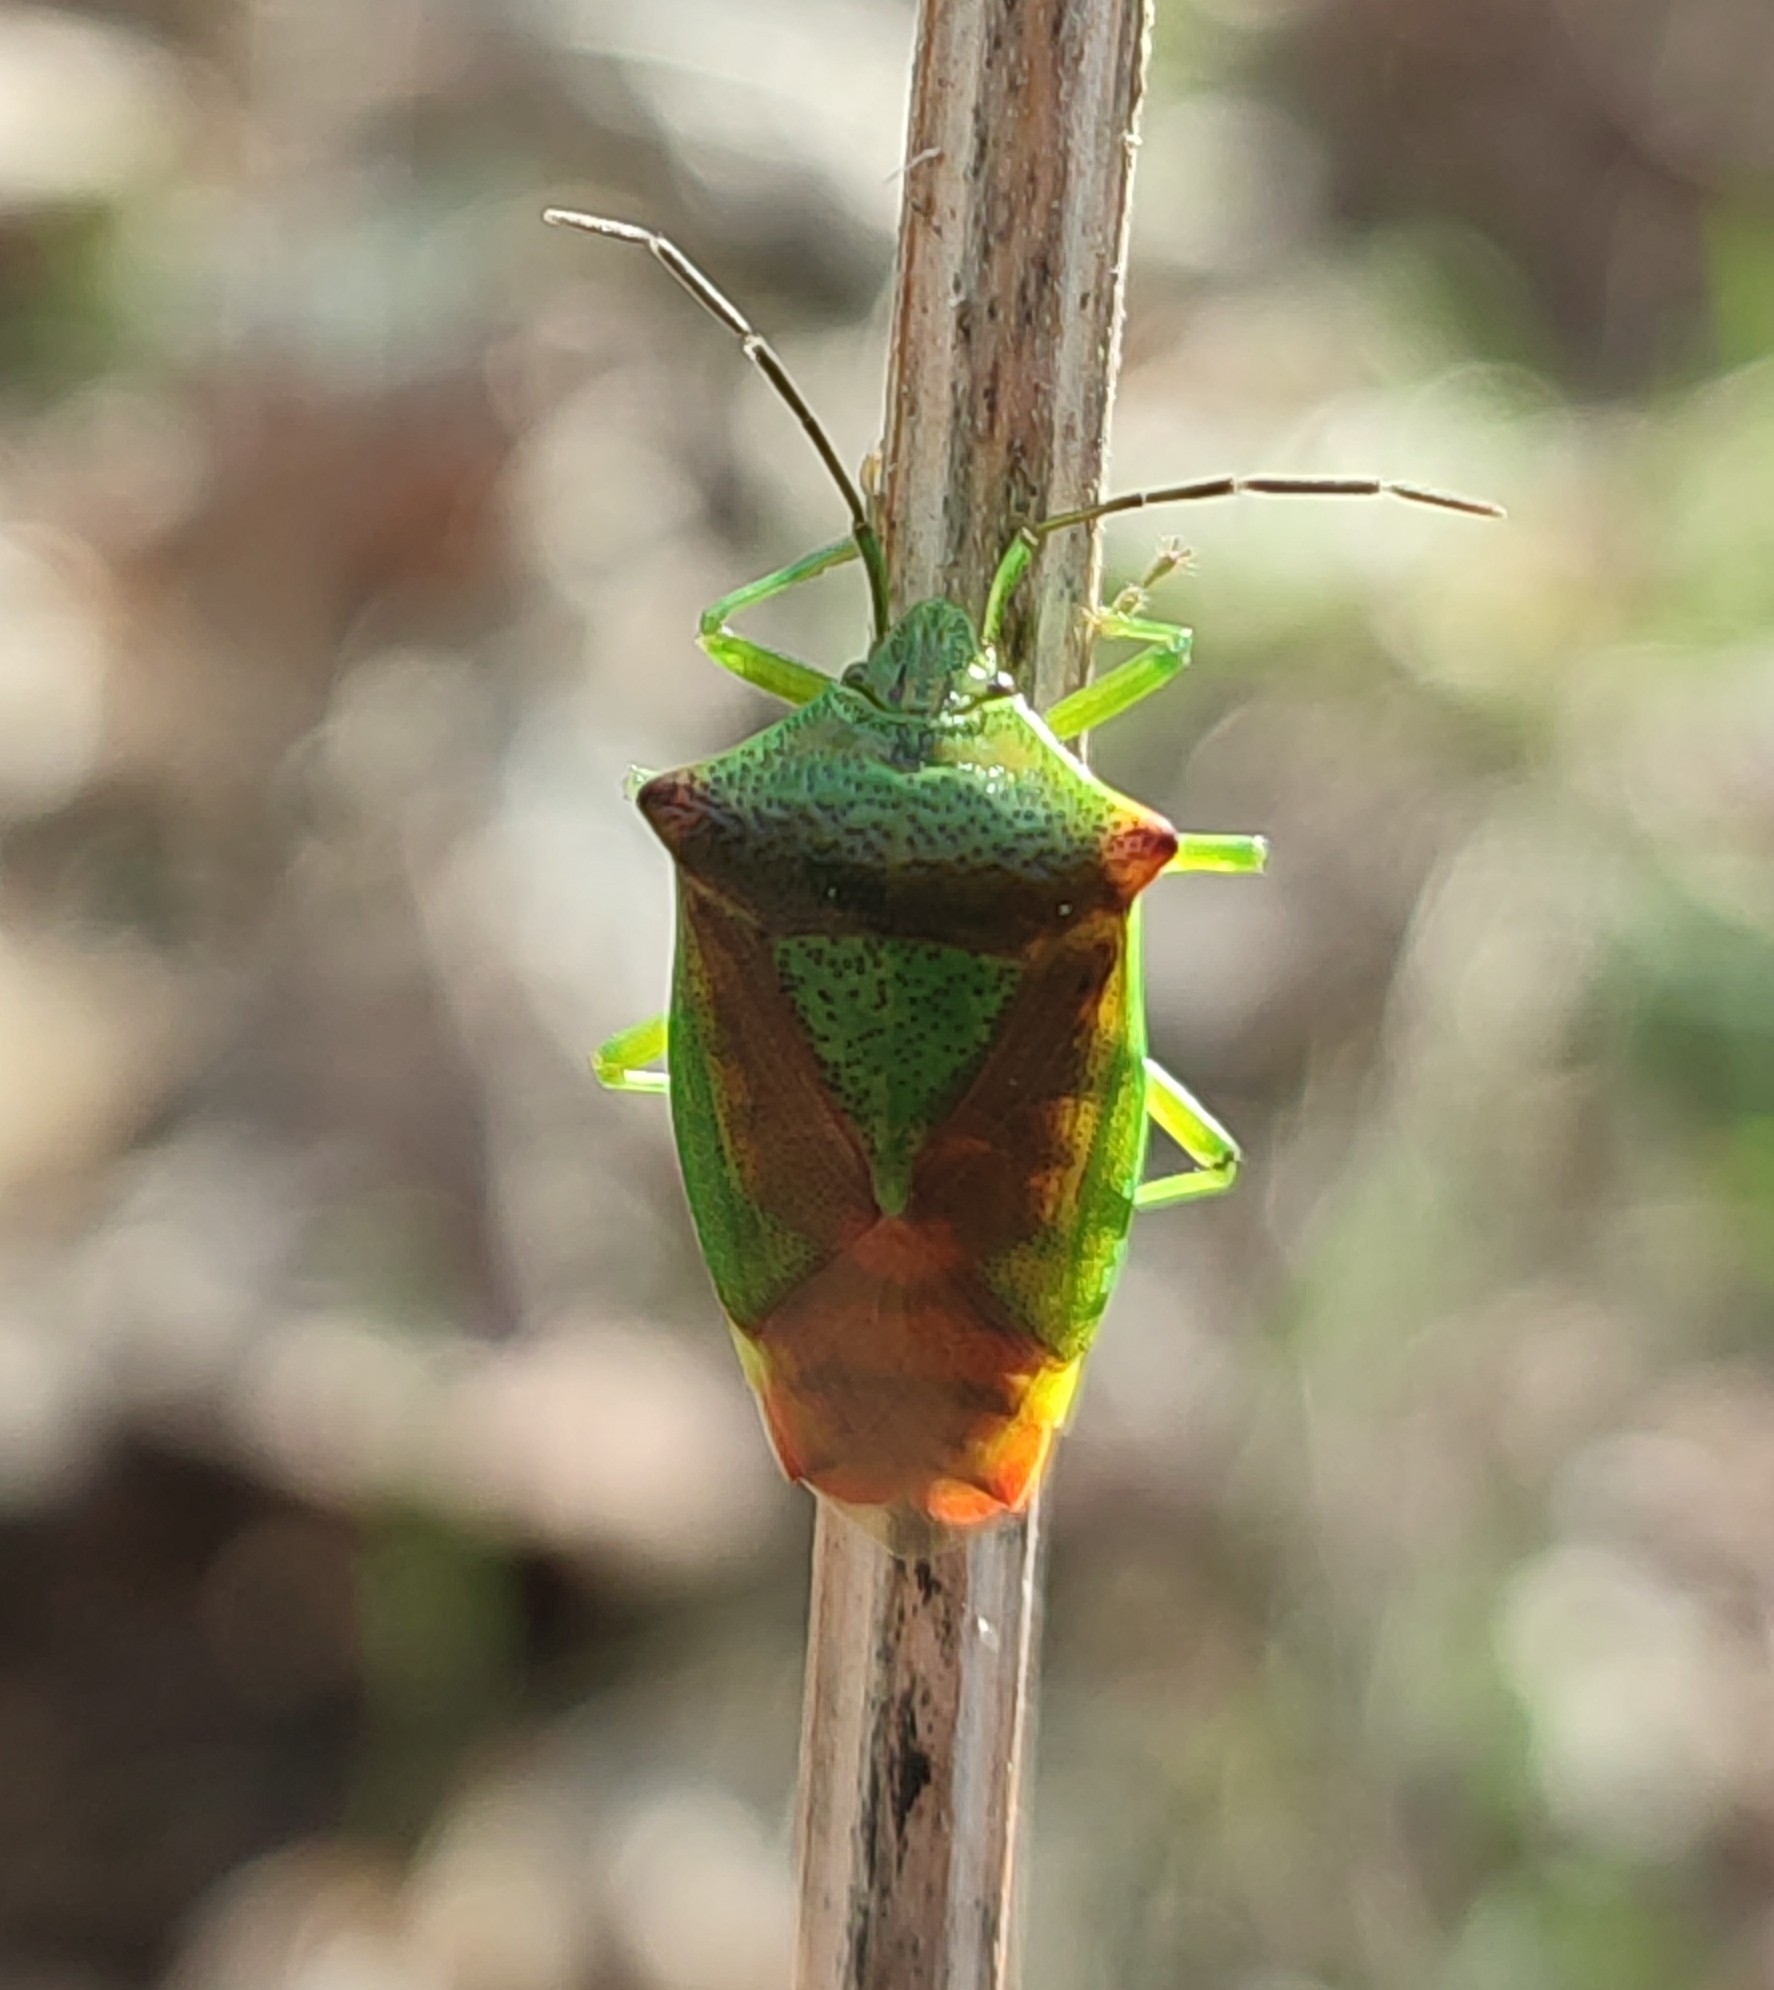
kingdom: Animalia
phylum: Arthropoda
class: Insecta
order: Hemiptera
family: Acanthosomatidae
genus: Acanthosoma
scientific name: Acanthosoma haemorrhoidale
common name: Hawthorn shieldbug
